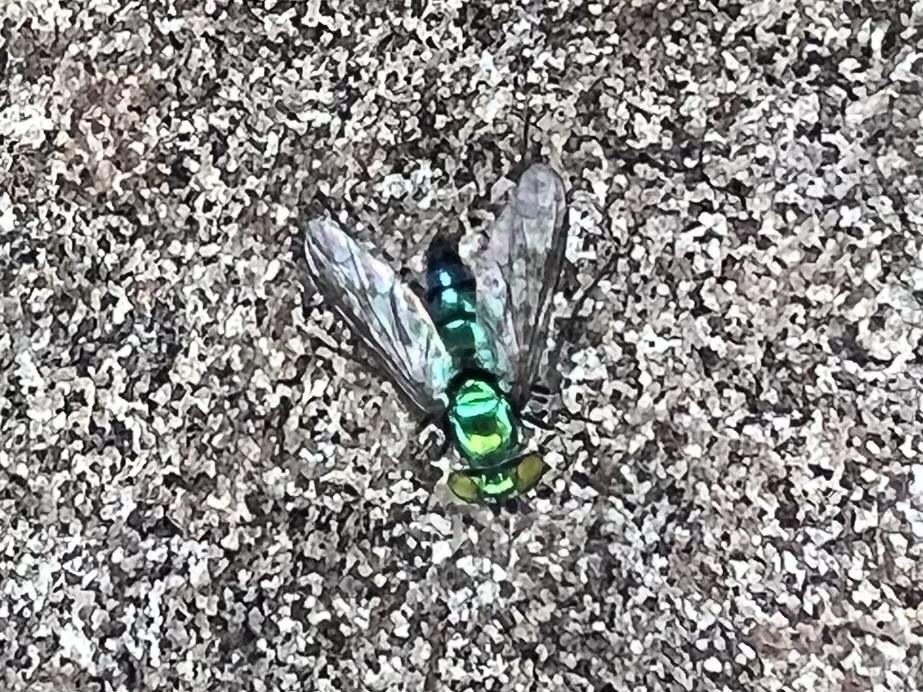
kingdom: Animalia
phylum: Arthropoda
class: Insecta
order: Diptera
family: Dolichopodidae
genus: Condylostylus
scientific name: Condylostylus longicornis
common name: Long-legged fly
